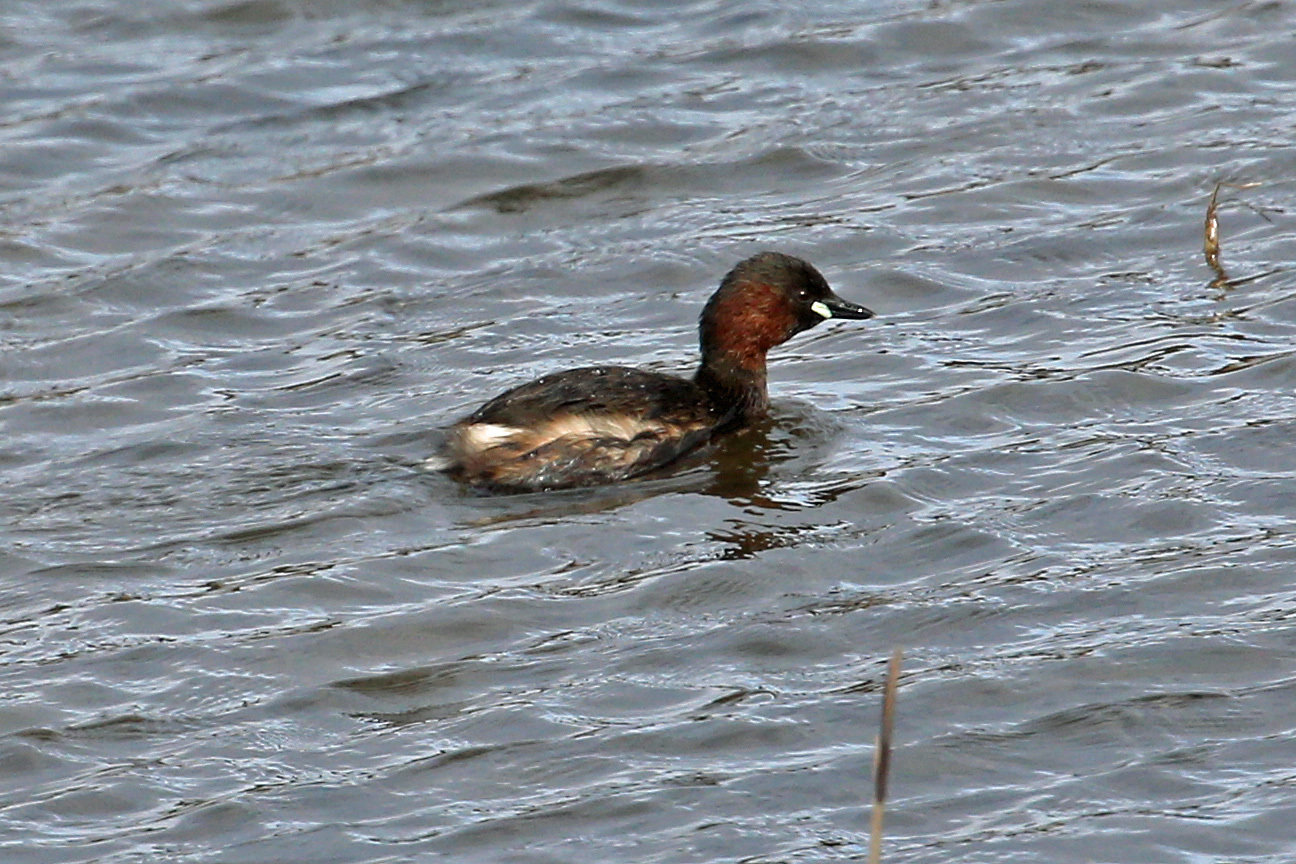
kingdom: Animalia
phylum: Chordata
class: Aves
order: Podicipediformes
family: Podicipedidae
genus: Tachybaptus
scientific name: Tachybaptus ruficollis
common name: Little grebe
